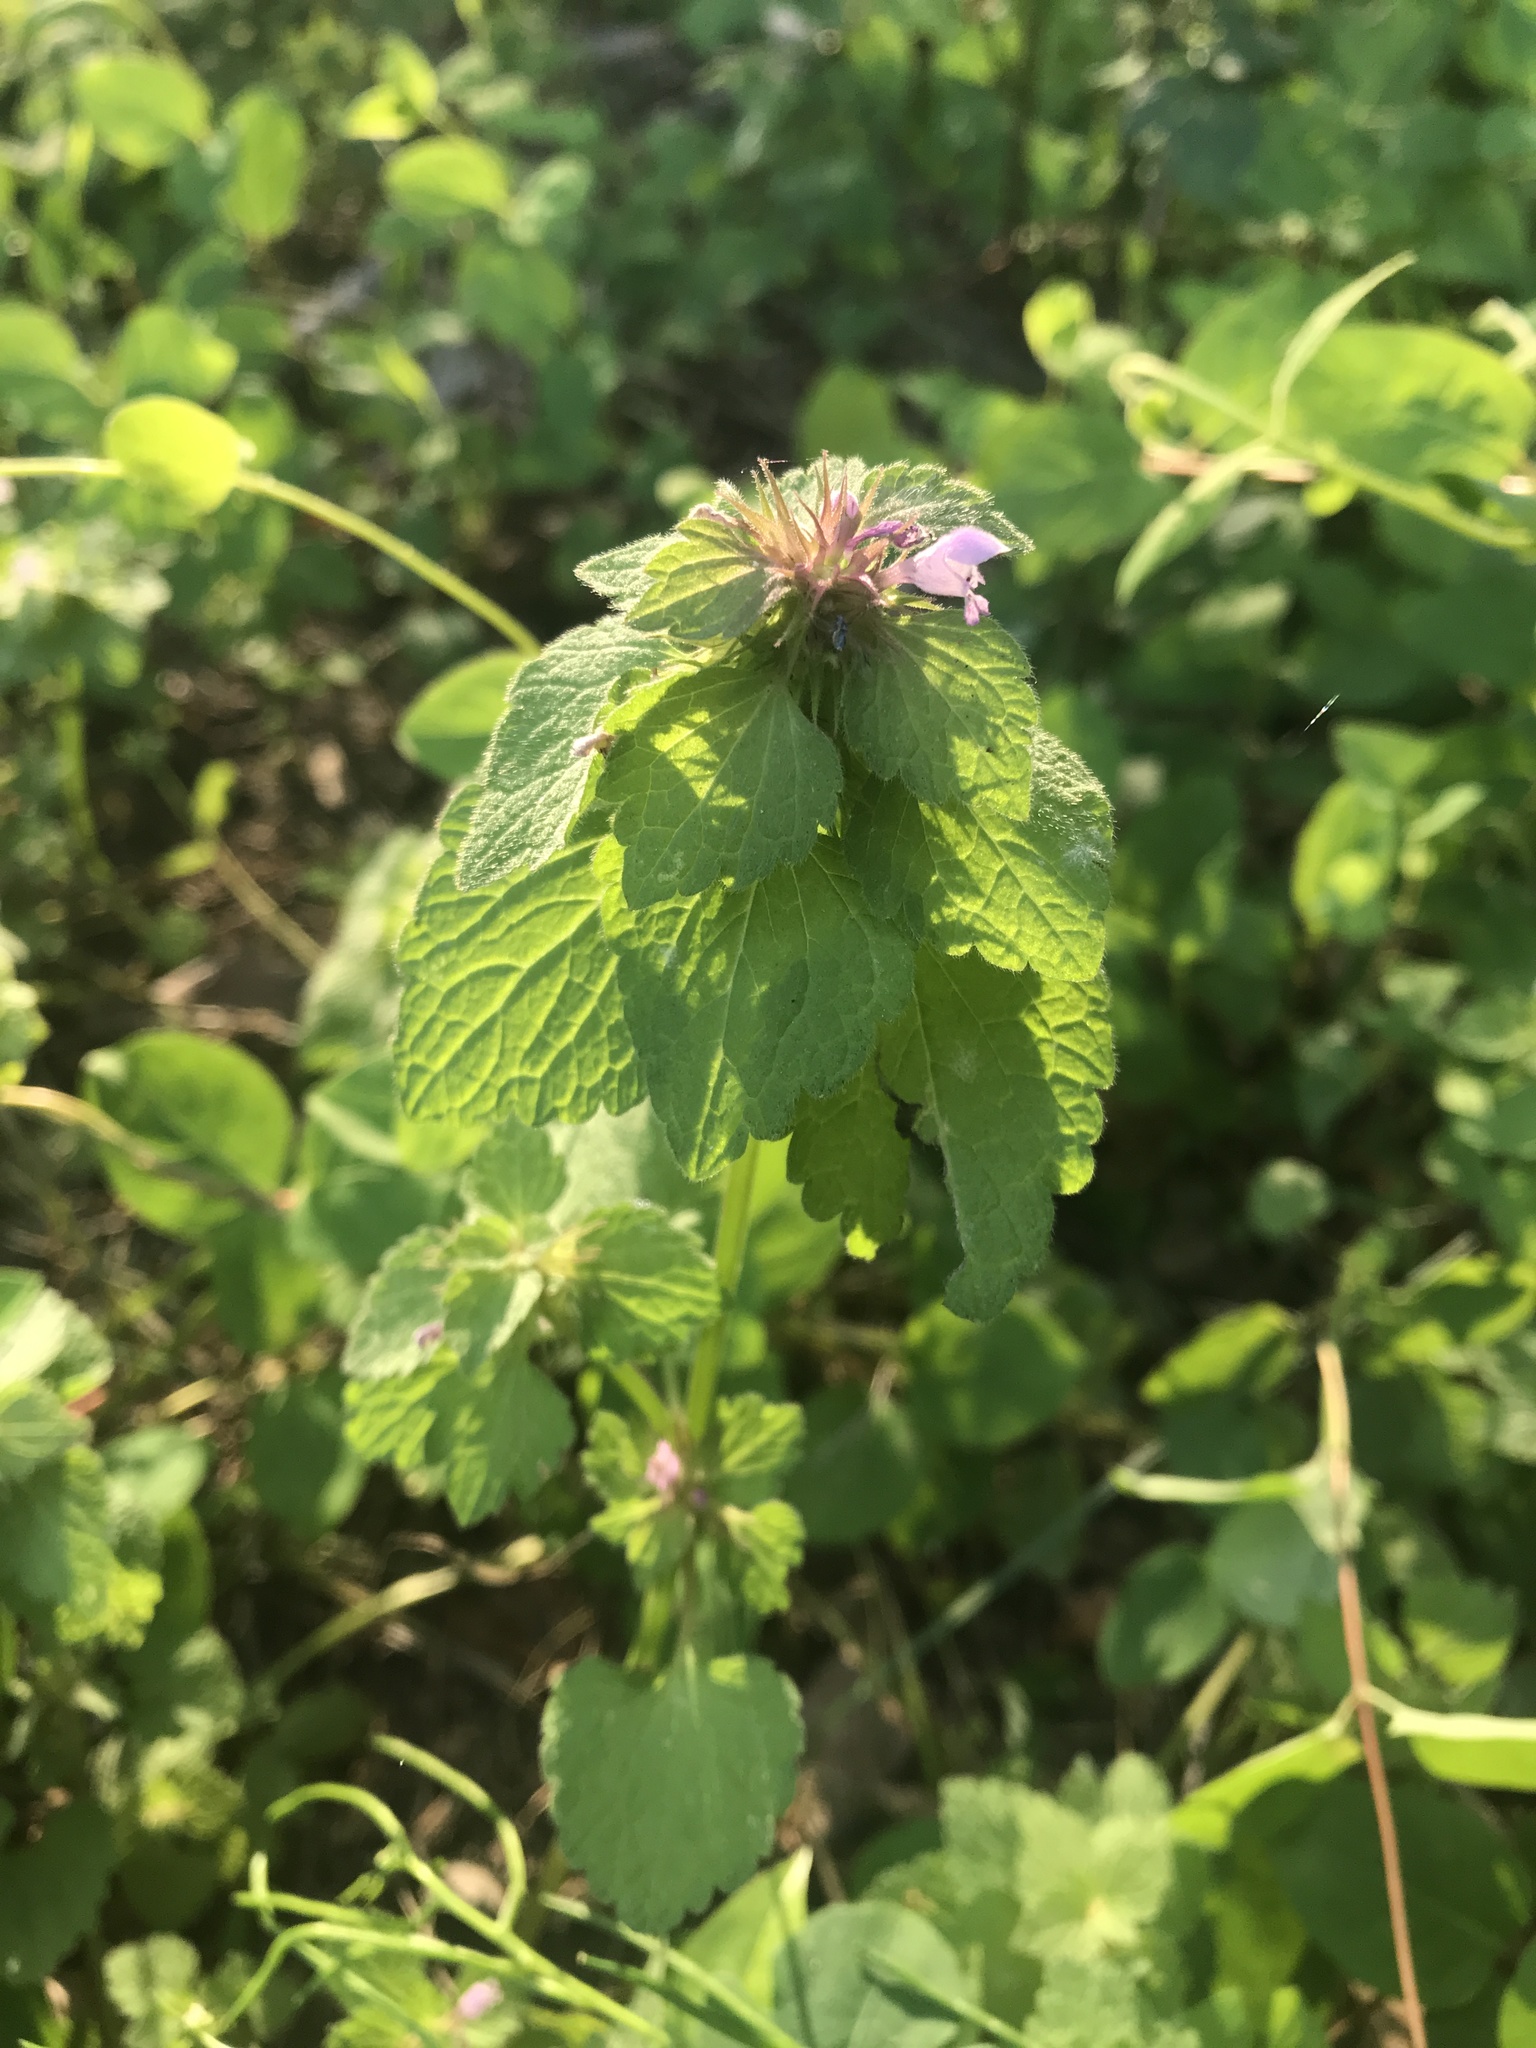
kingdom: Plantae
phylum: Tracheophyta
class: Magnoliopsida
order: Lamiales
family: Lamiaceae
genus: Lamium
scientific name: Lamium purpureum
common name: Red dead-nettle
